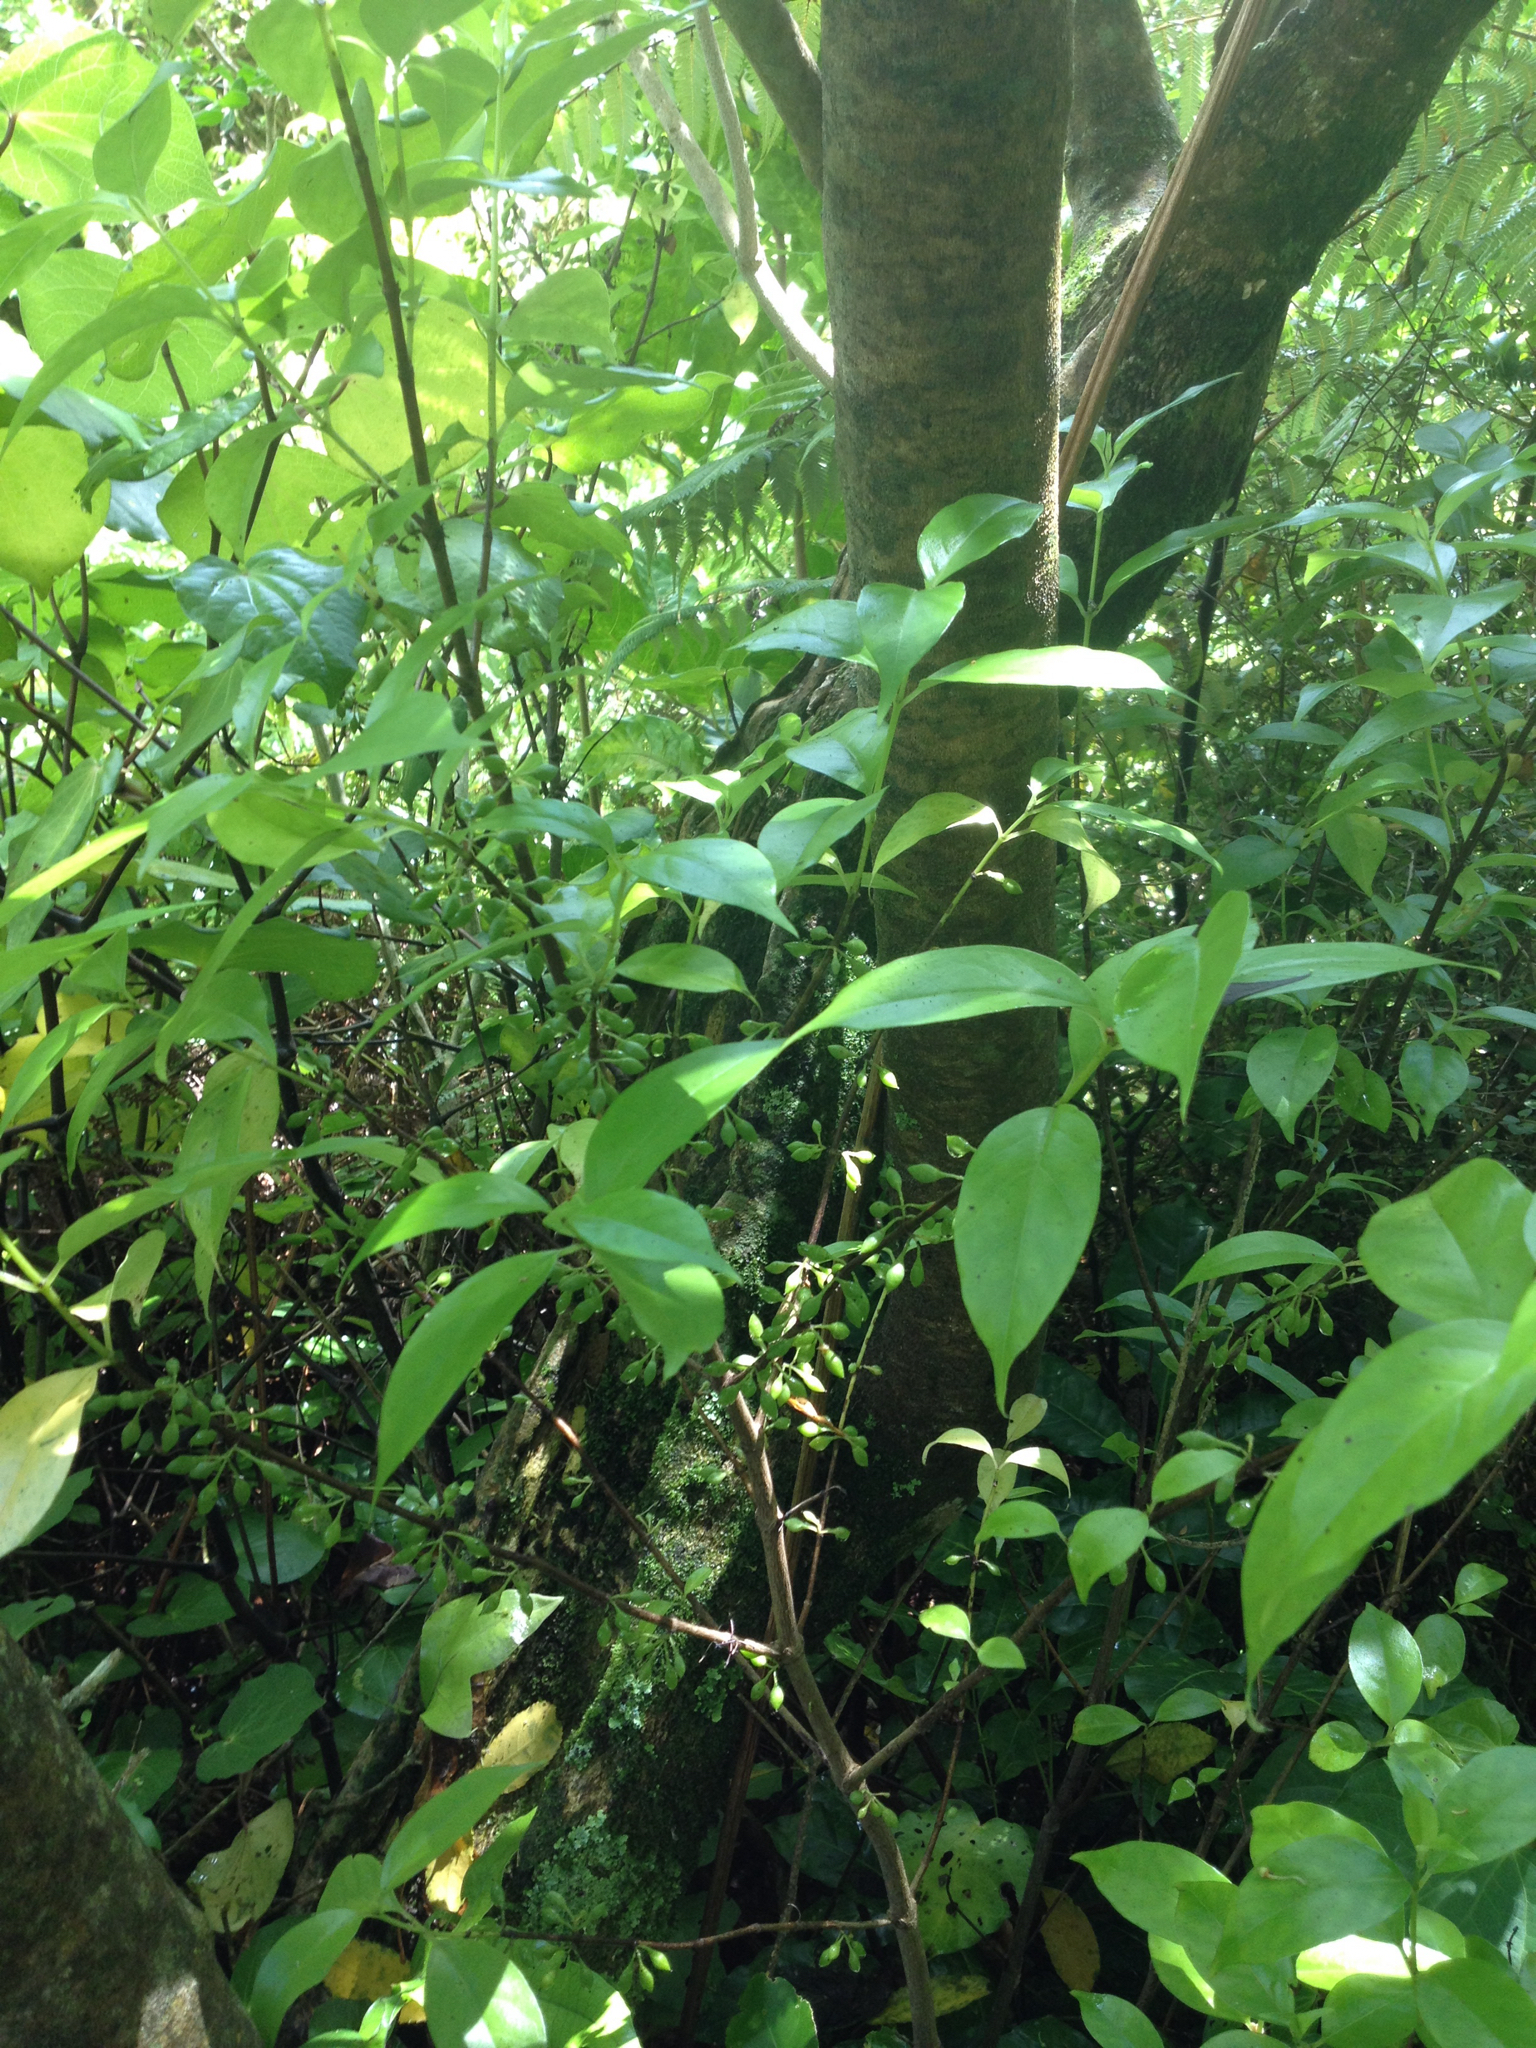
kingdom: Plantae
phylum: Tracheophyta
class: Magnoliopsida
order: Gentianales
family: Loganiaceae
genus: Geniostoma
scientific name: Geniostoma ligustrifolium
